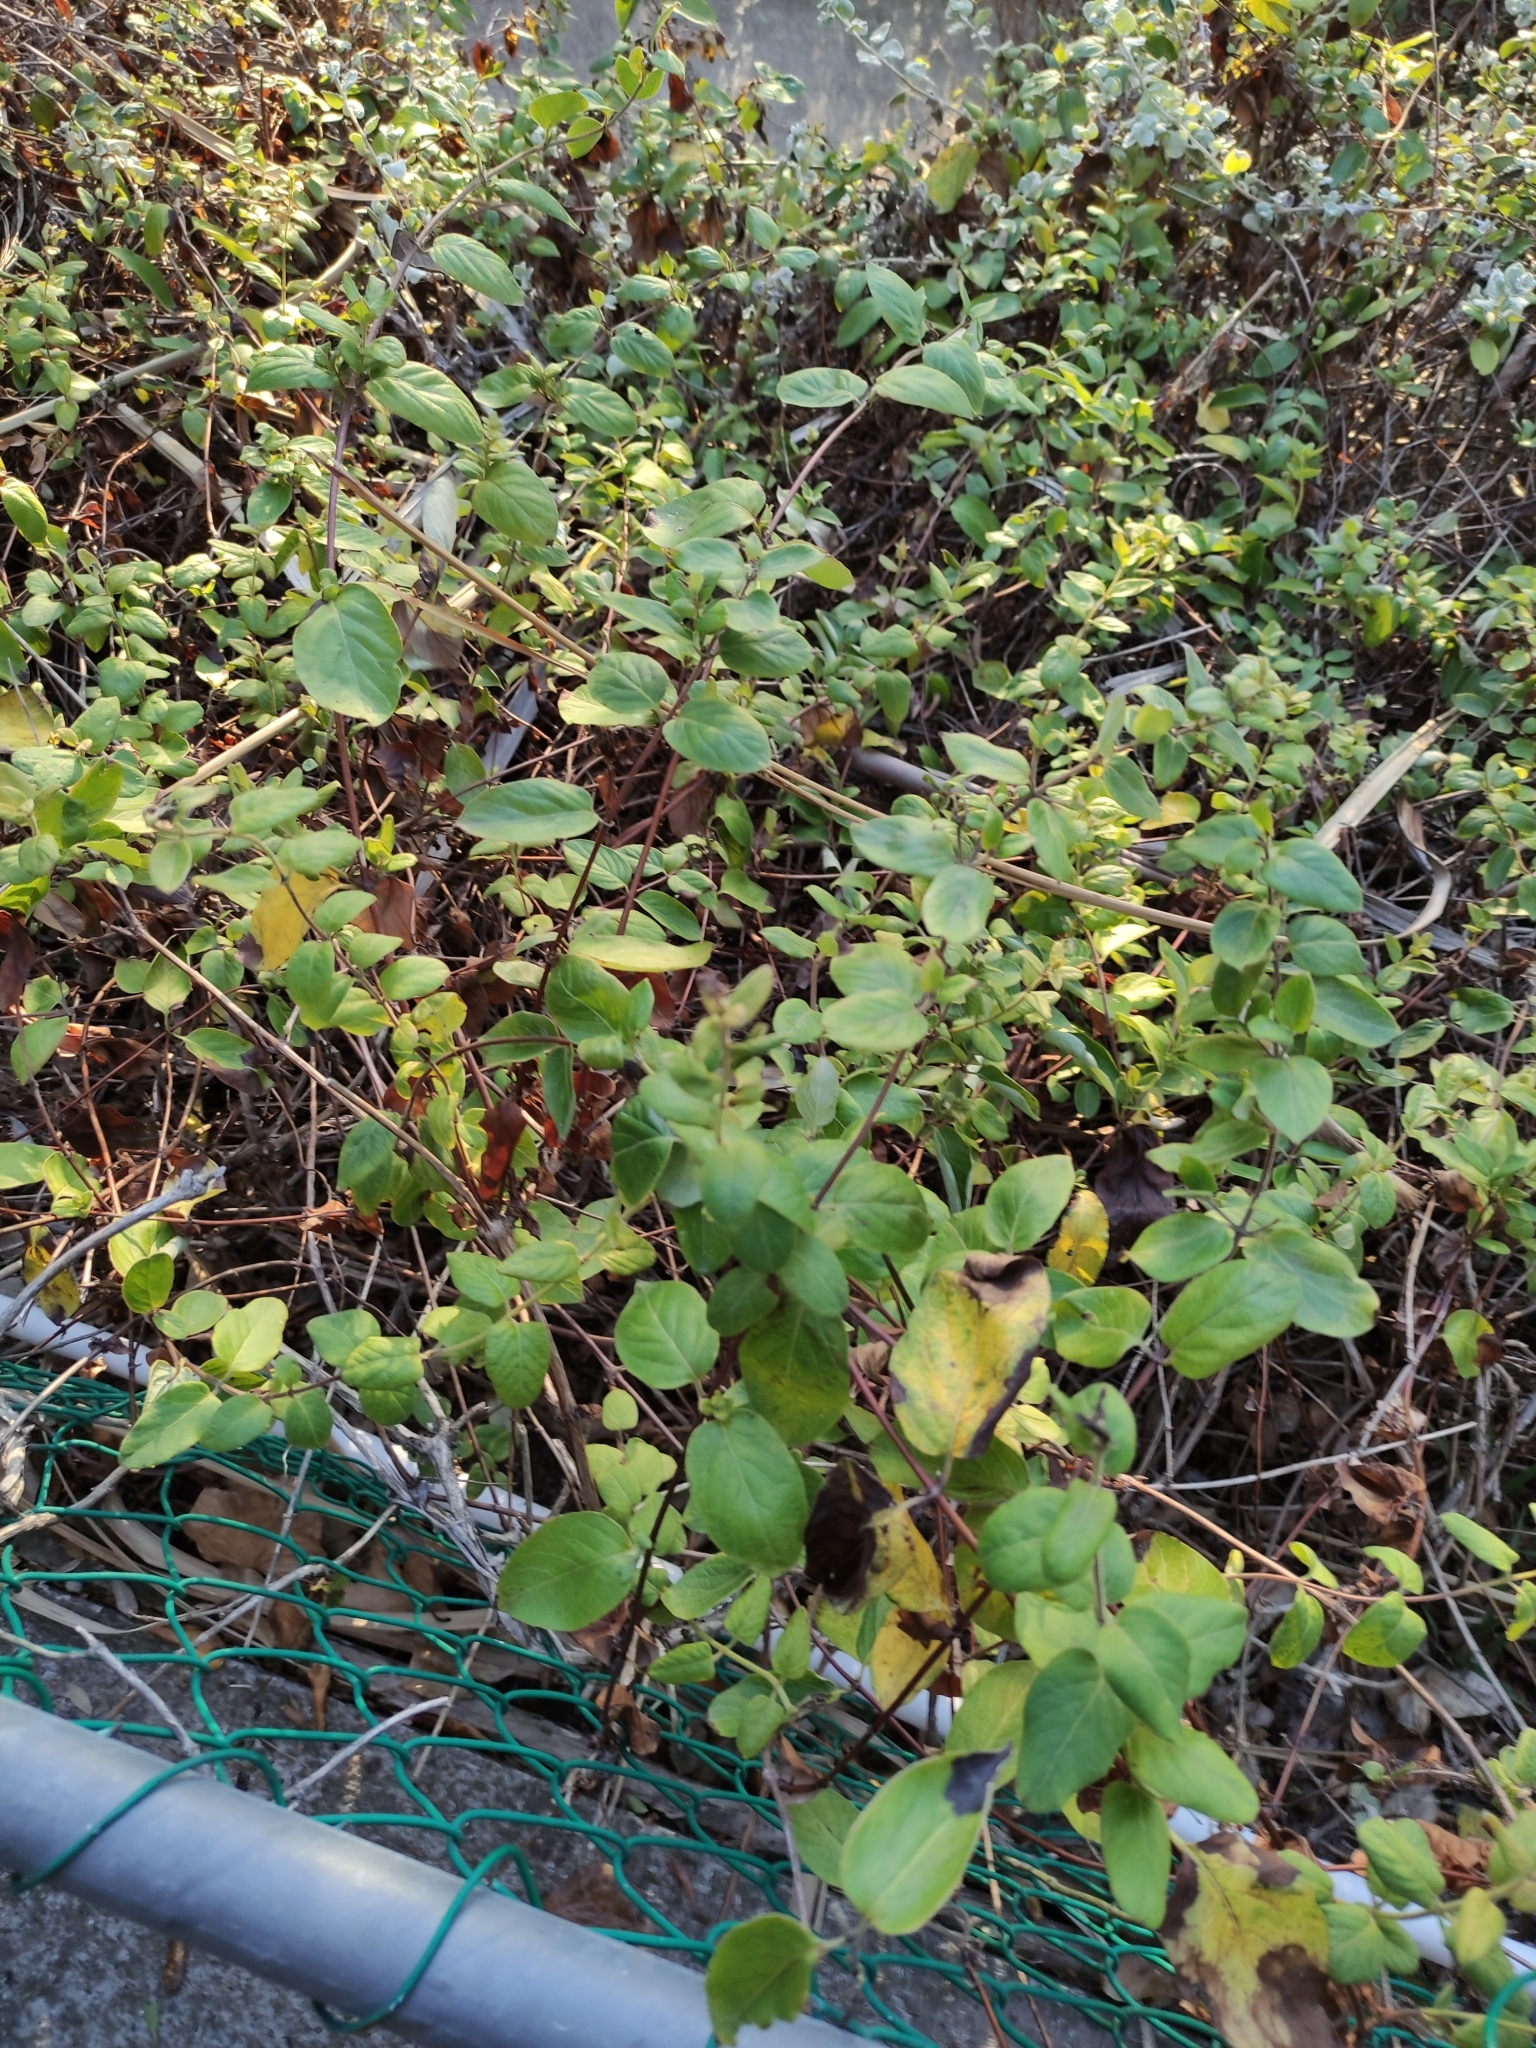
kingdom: Plantae
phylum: Tracheophyta
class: Magnoliopsida
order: Dipsacales
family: Caprifoliaceae
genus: Lonicera
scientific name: Lonicera japonica
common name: Japanese honeysuckle
